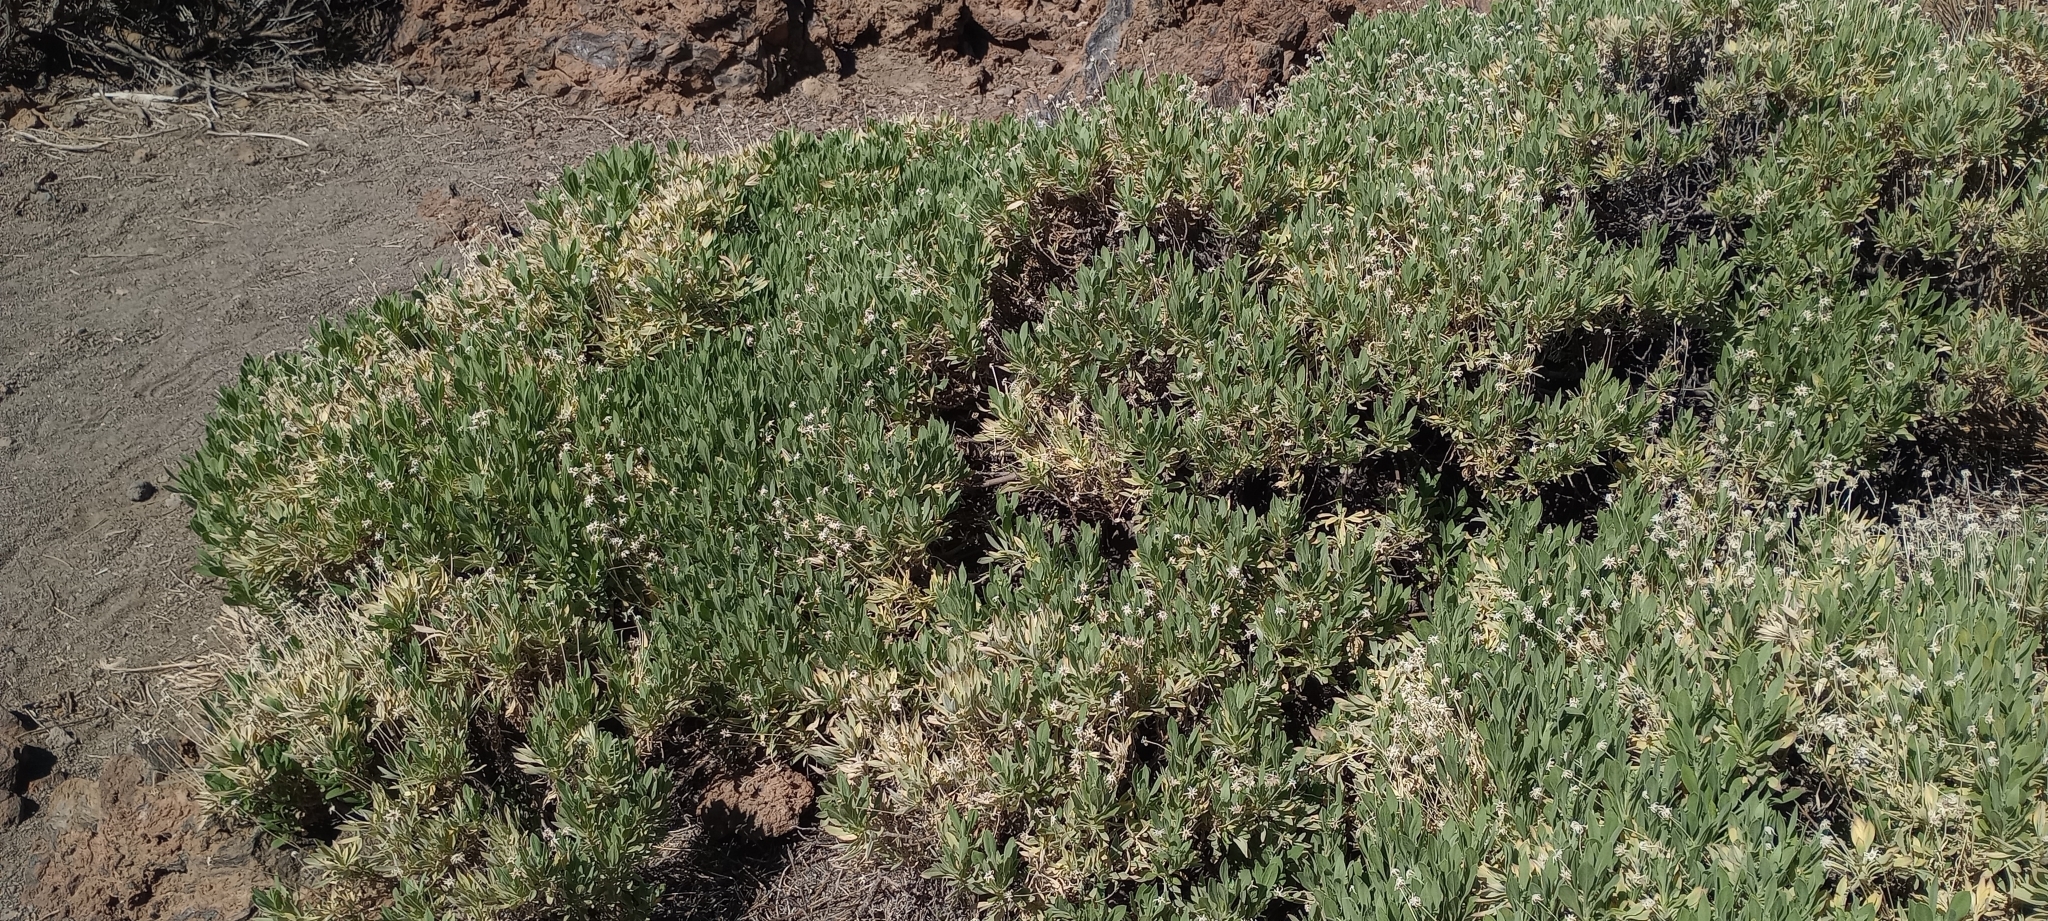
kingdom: Plantae
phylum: Tracheophyta
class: Magnoliopsida
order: Dipsacales
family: Caprifoliaceae
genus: Pterocephalus
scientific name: Pterocephalus lasiospermus
